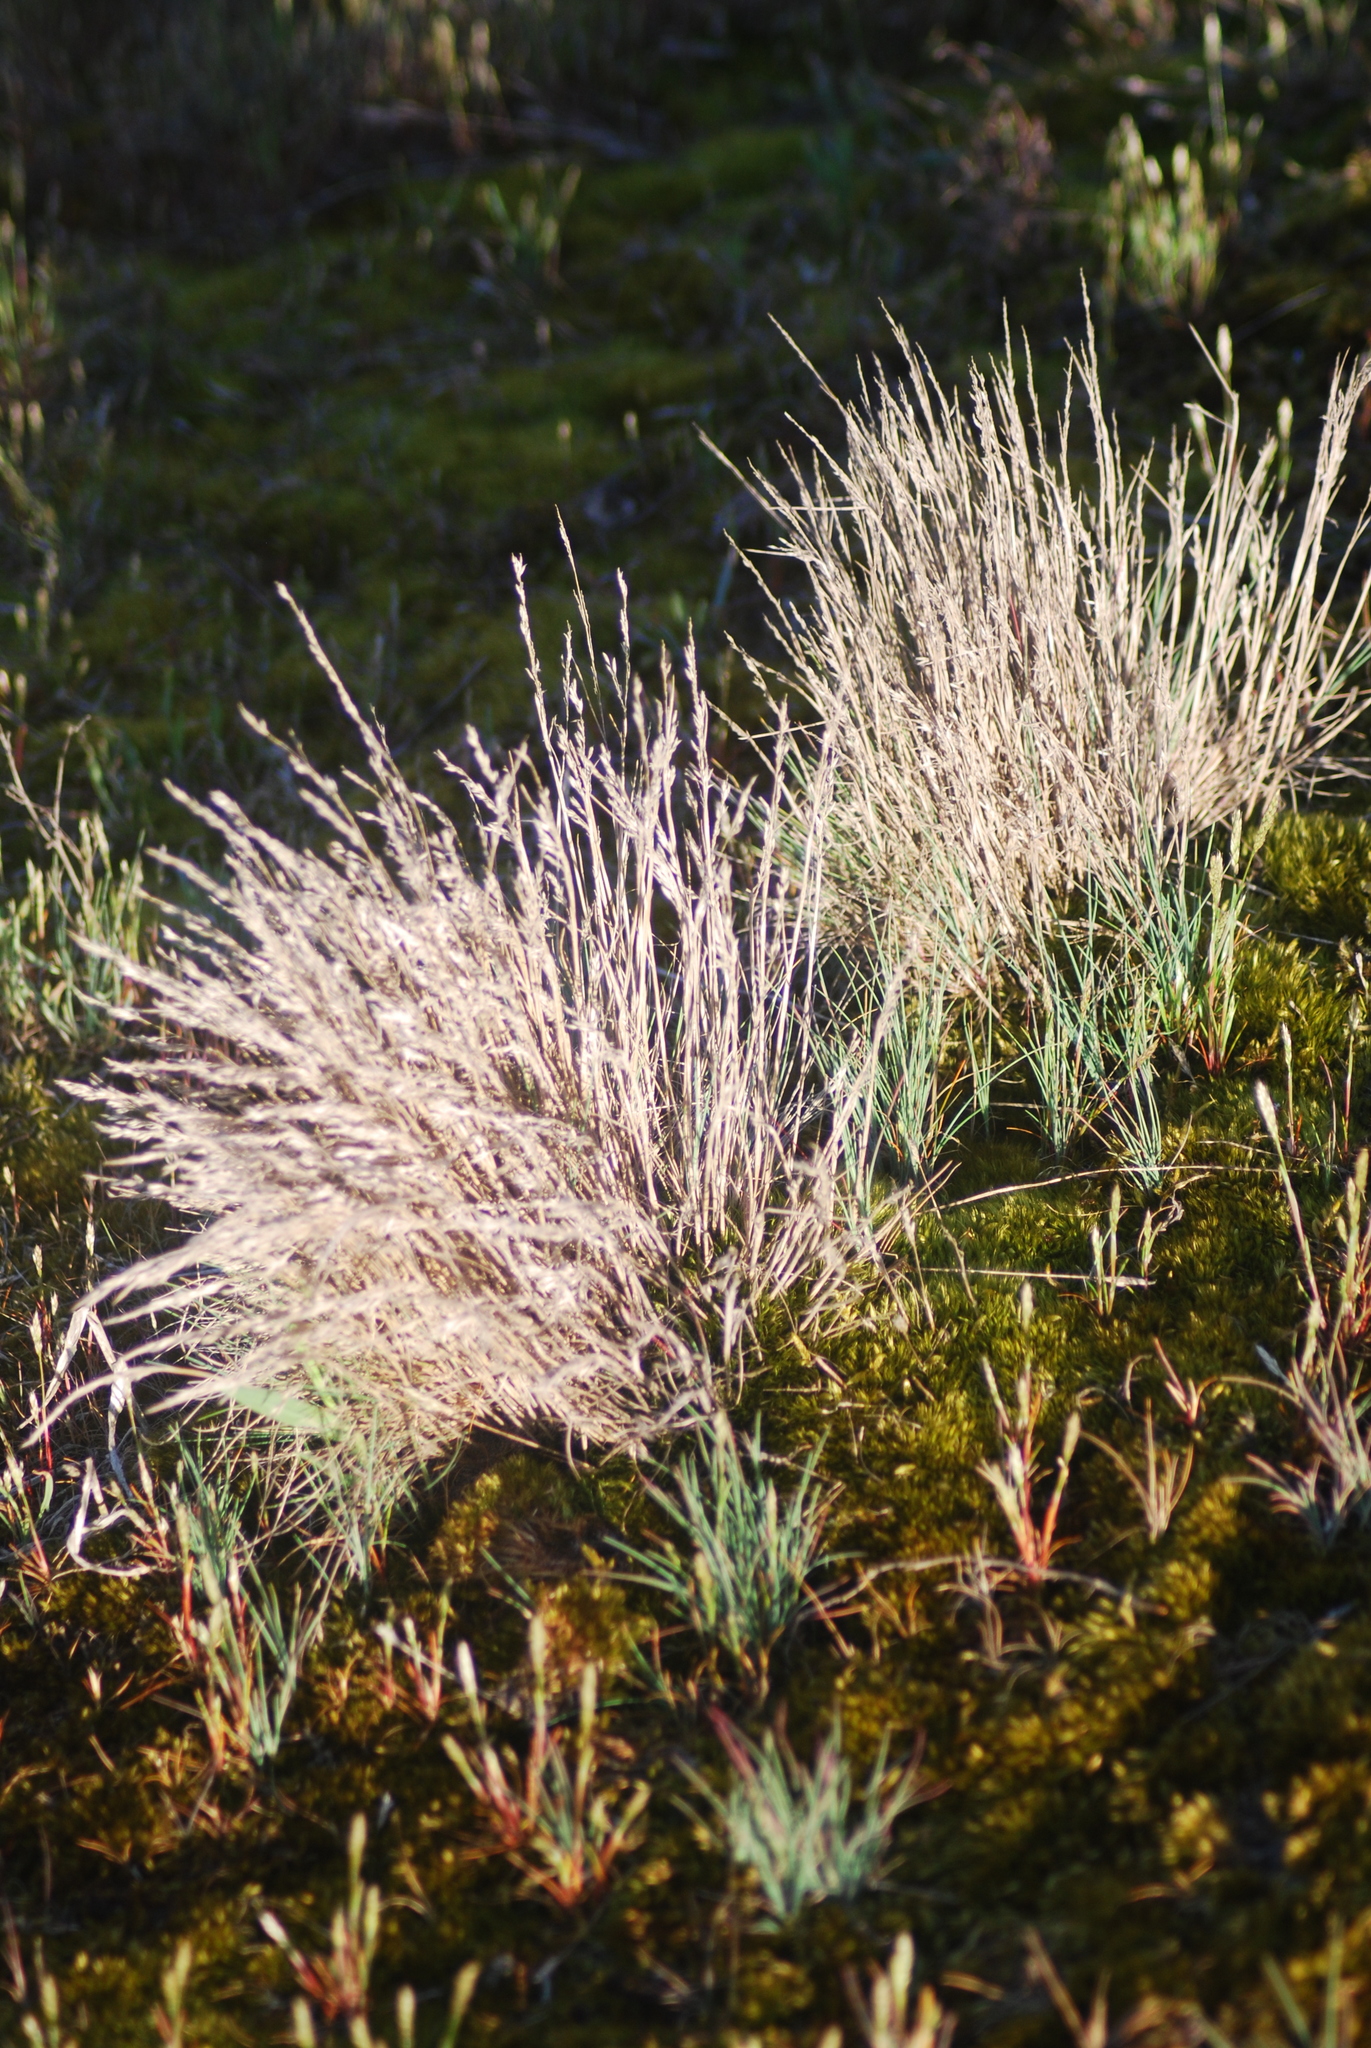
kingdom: Plantae
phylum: Tracheophyta
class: Liliopsida
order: Poales
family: Poaceae
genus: Corynephorus
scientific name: Corynephorus canescens
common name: Grey hair-grass
